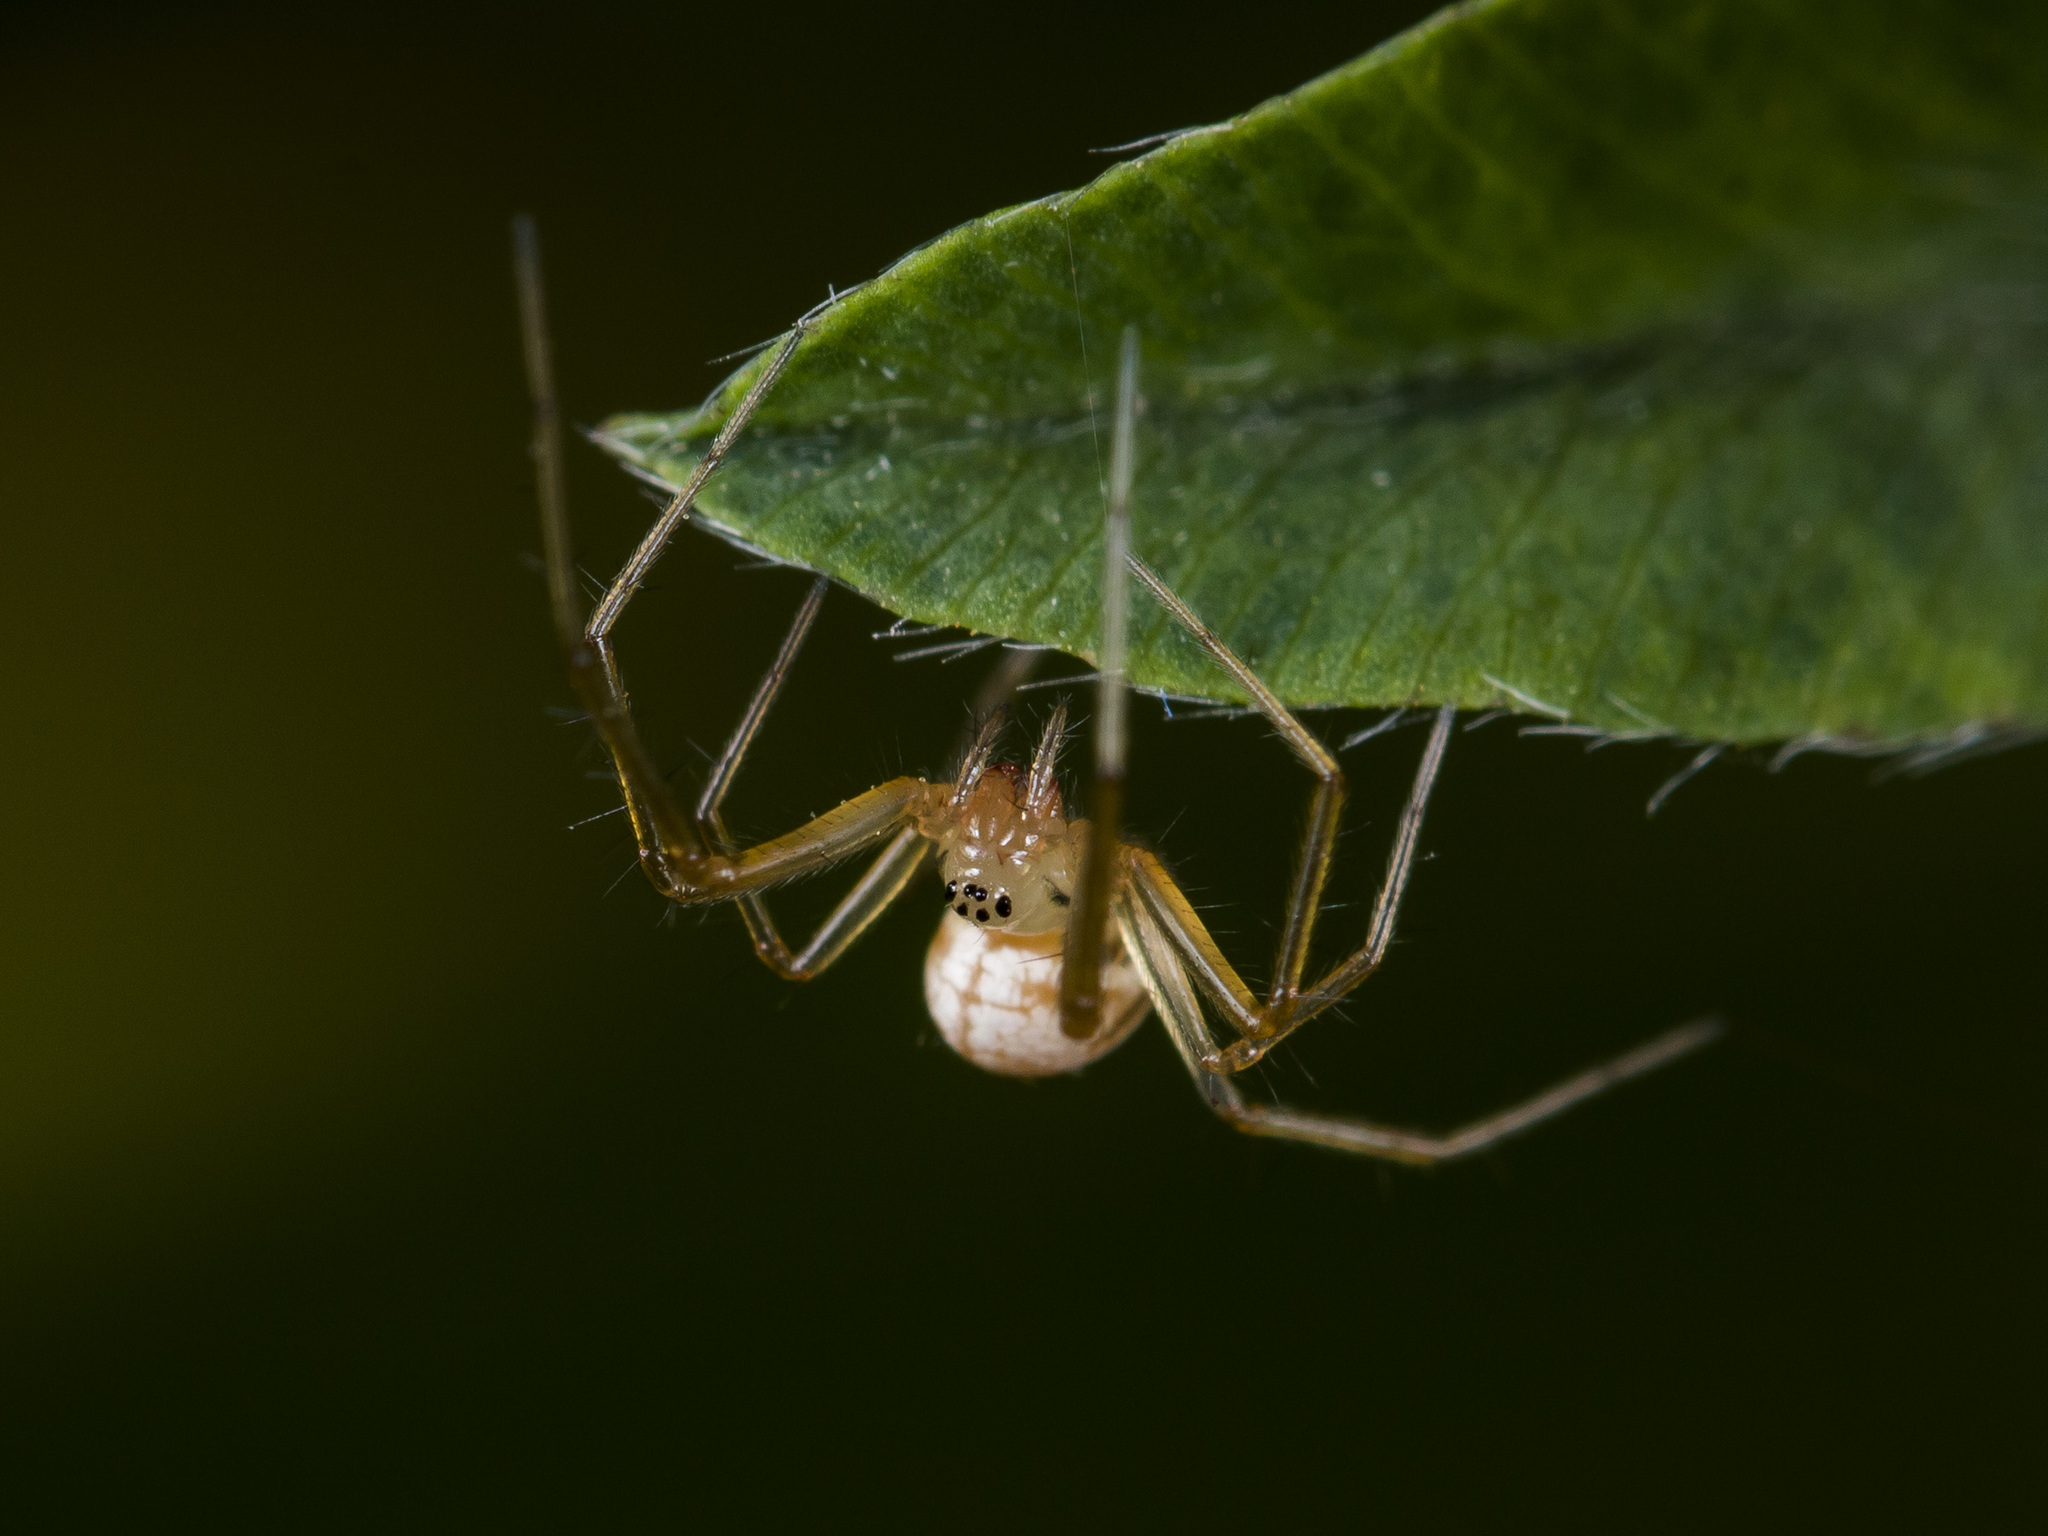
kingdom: Animalia
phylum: Arthropoda
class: Arachnida
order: Araneae
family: Linyphiidae
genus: Bolyphantes
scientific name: Bolyphantes alticeps
